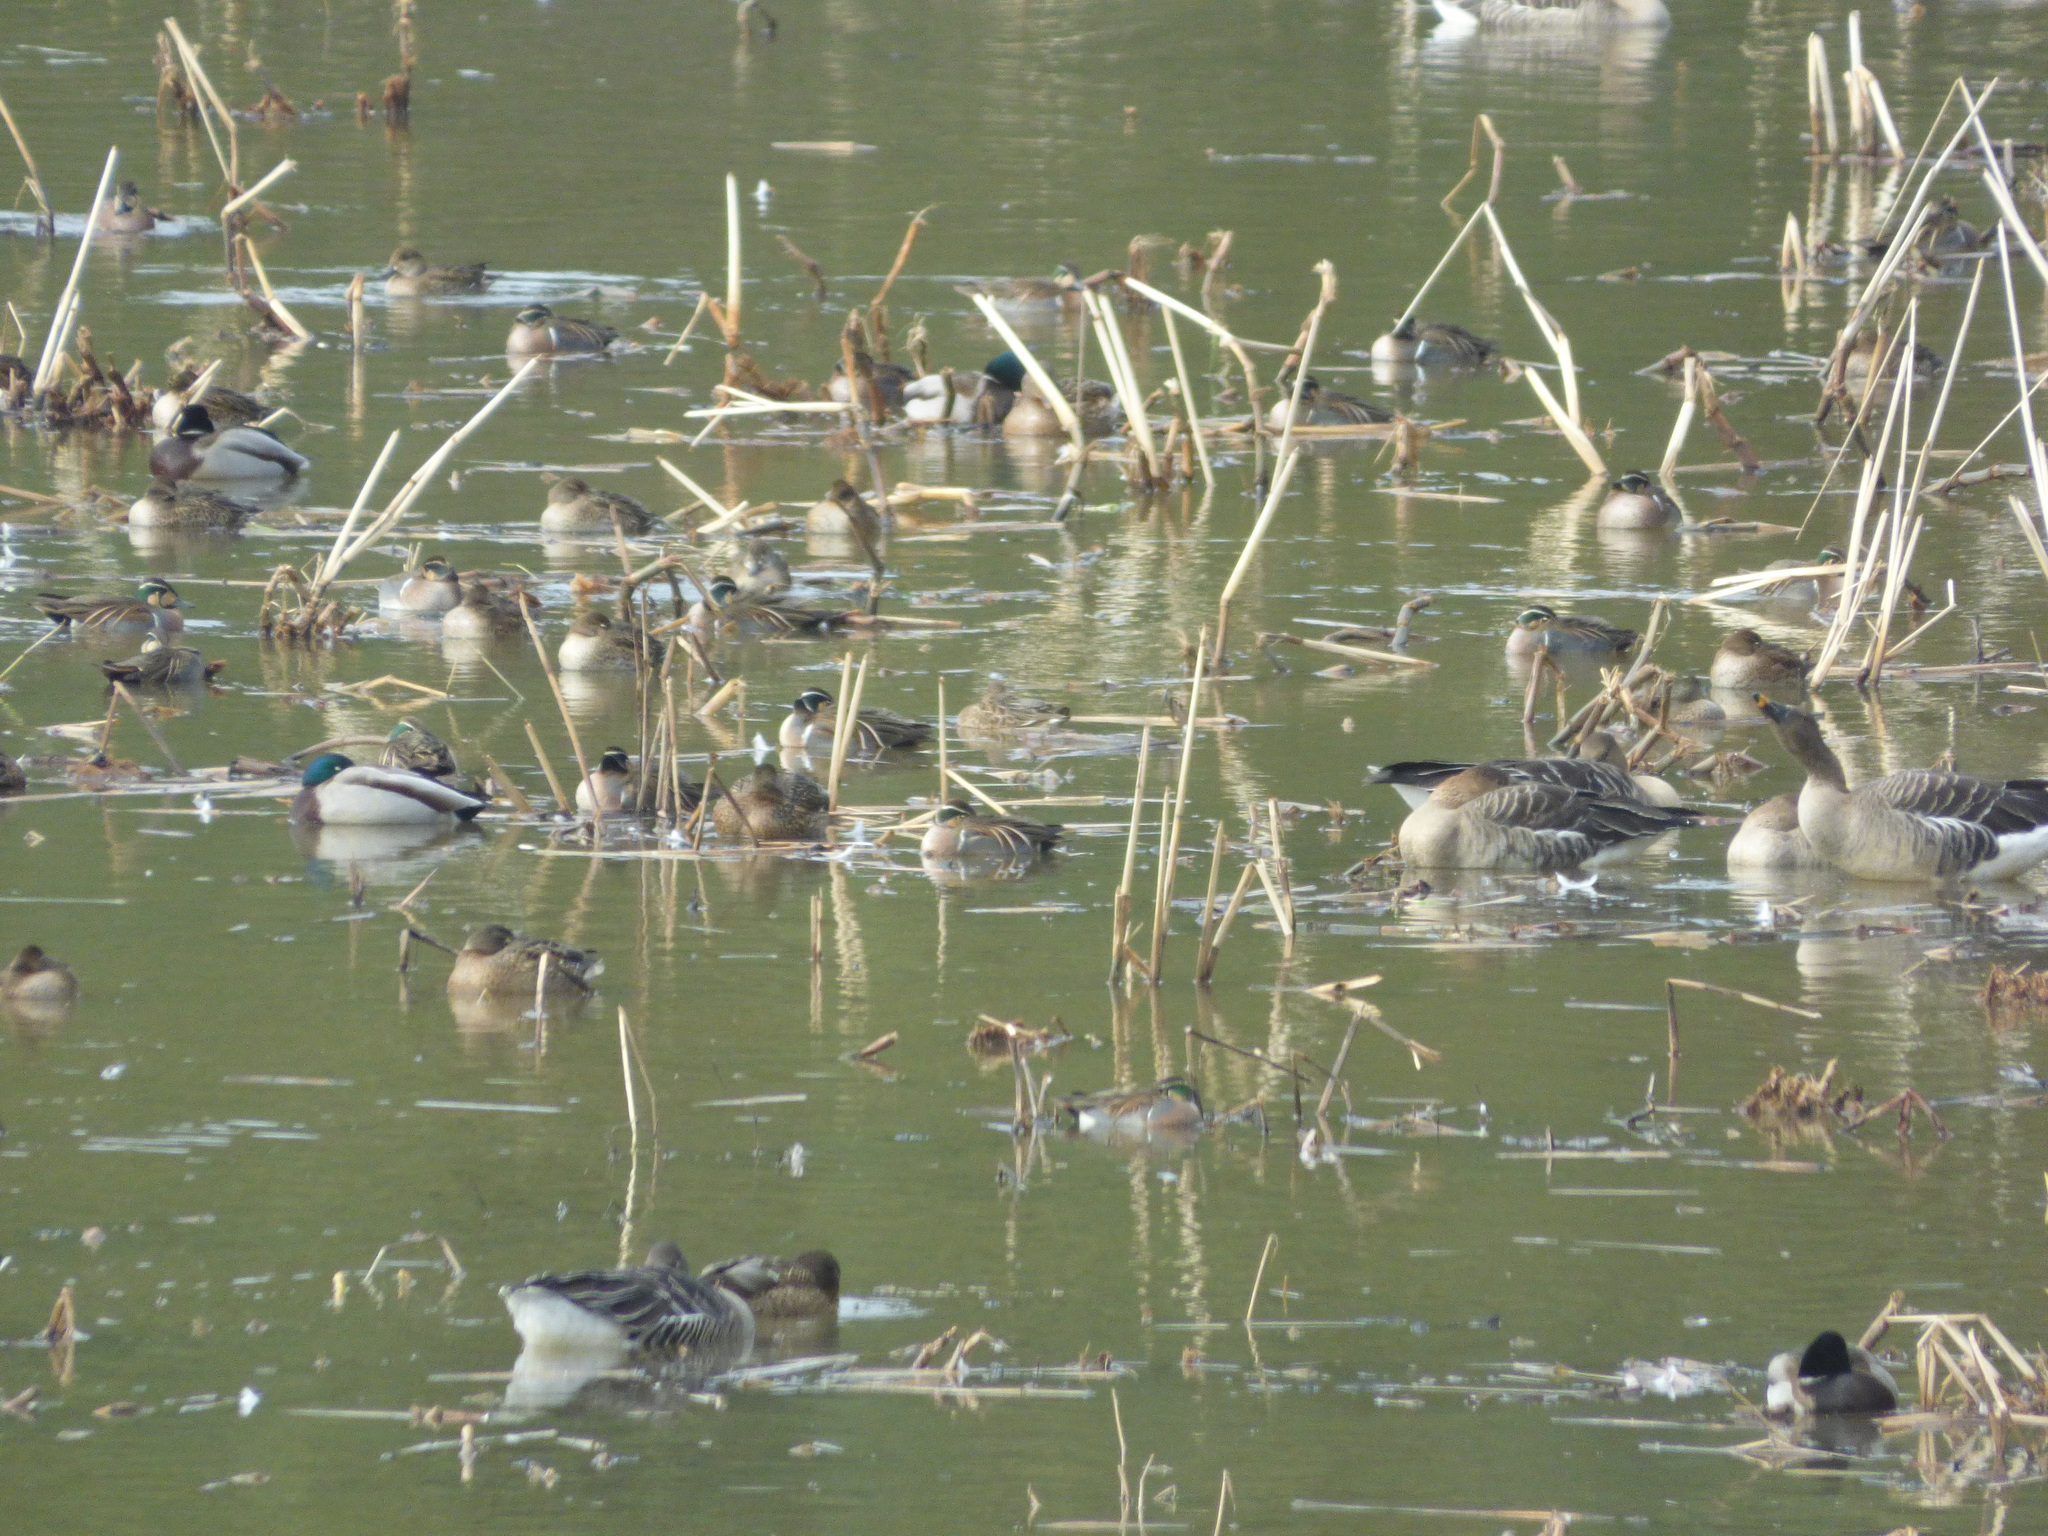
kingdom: Animalia
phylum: Chordata
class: Aves
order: Anseriformes
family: Anatidae
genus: Sibirionetta
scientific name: Sibirionetta formosa
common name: Baikal teal
